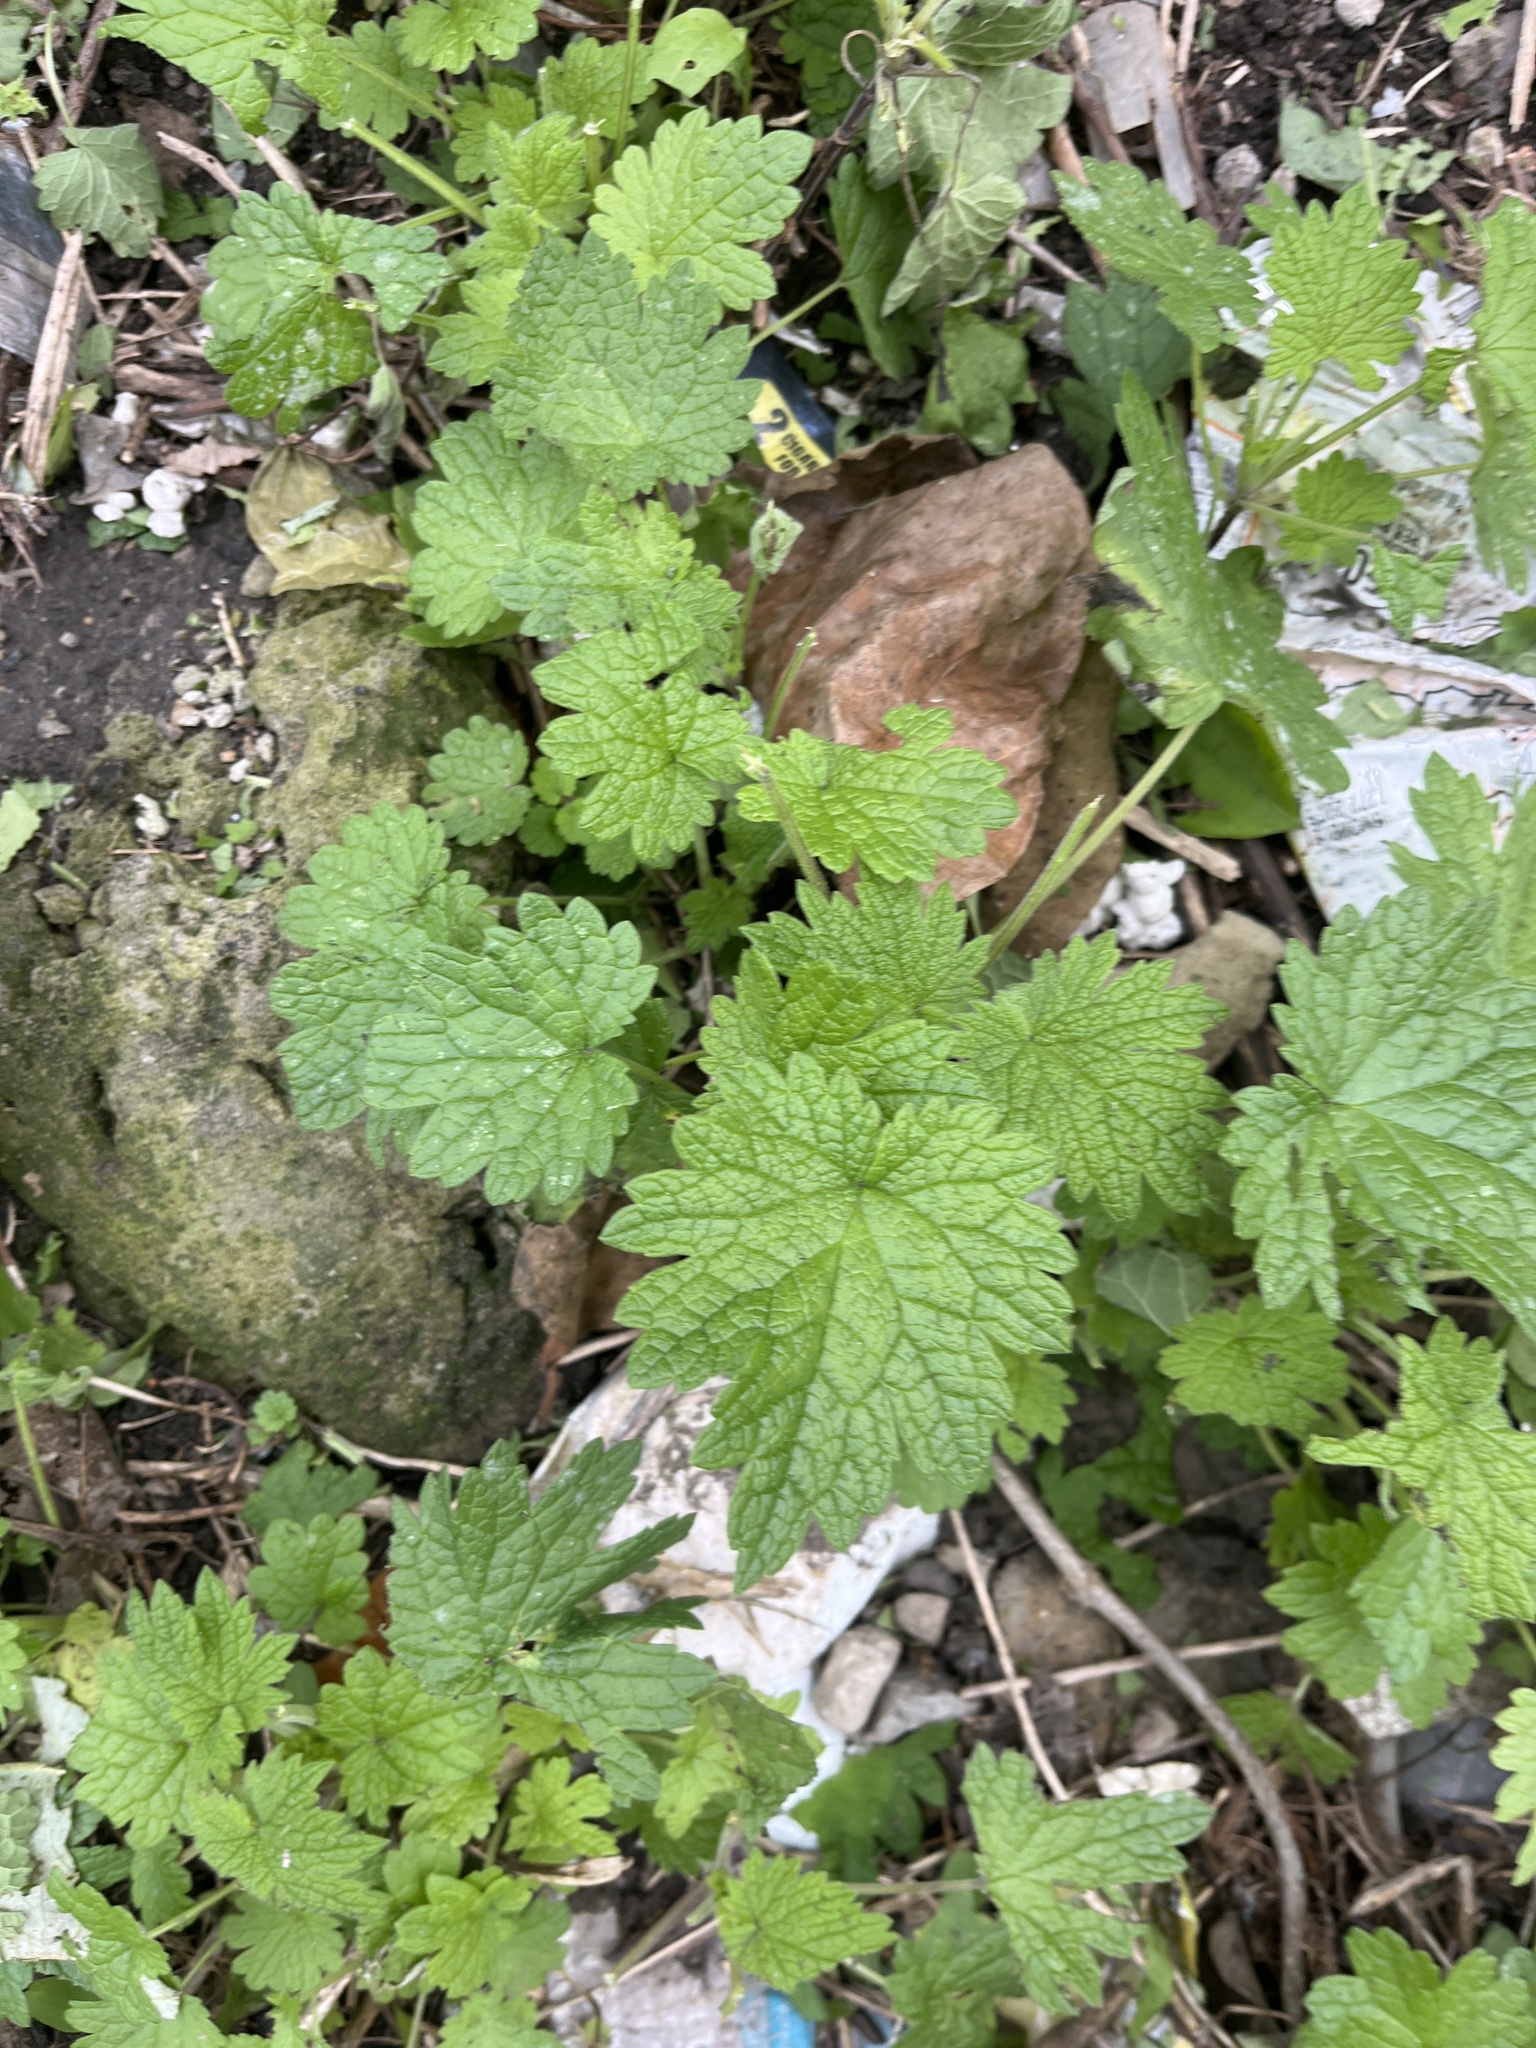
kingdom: Plantae
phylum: Tracheophyta
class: Magnoliopsida
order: Lamiales
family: Lamiaceae
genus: Leonurus
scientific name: Leonurus cardiaca
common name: Motherwort
